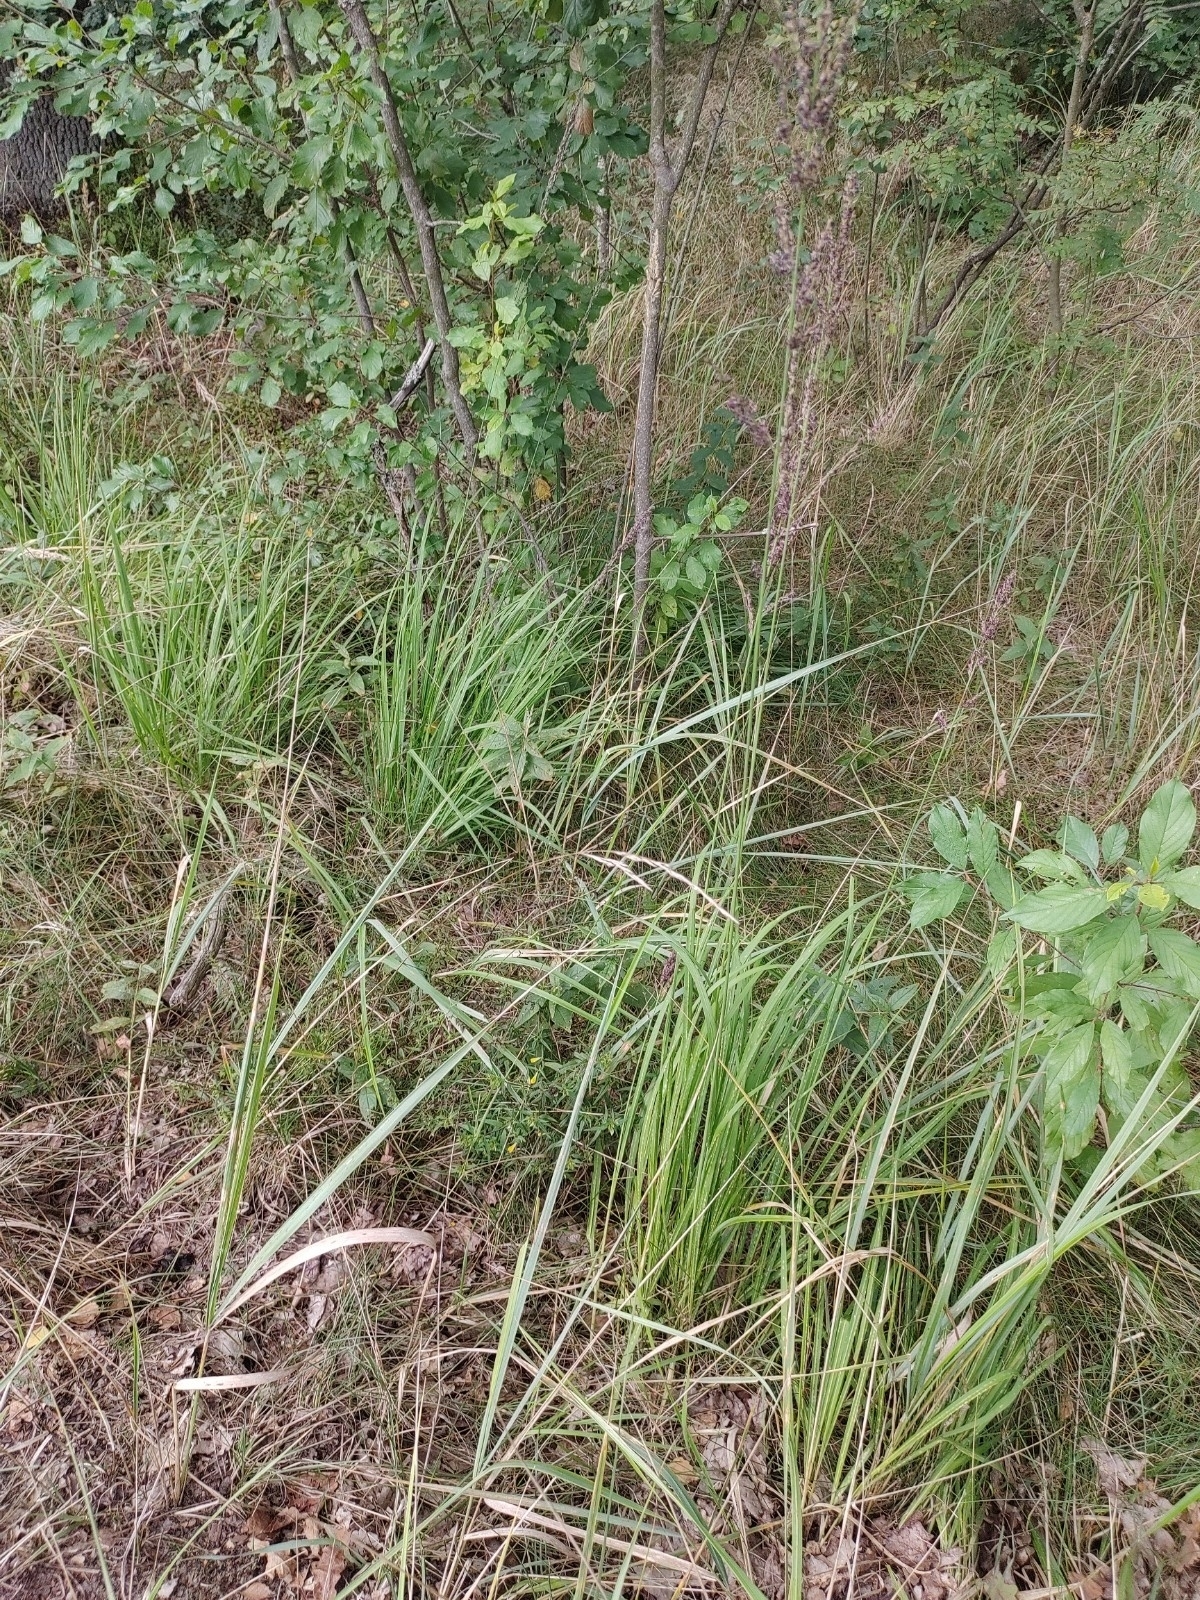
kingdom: Plantae
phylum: Tracheophyta
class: Liliopsida
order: Poales
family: Poaceae
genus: Molinia
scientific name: Molinia caerulea
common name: Purple moor-grass
